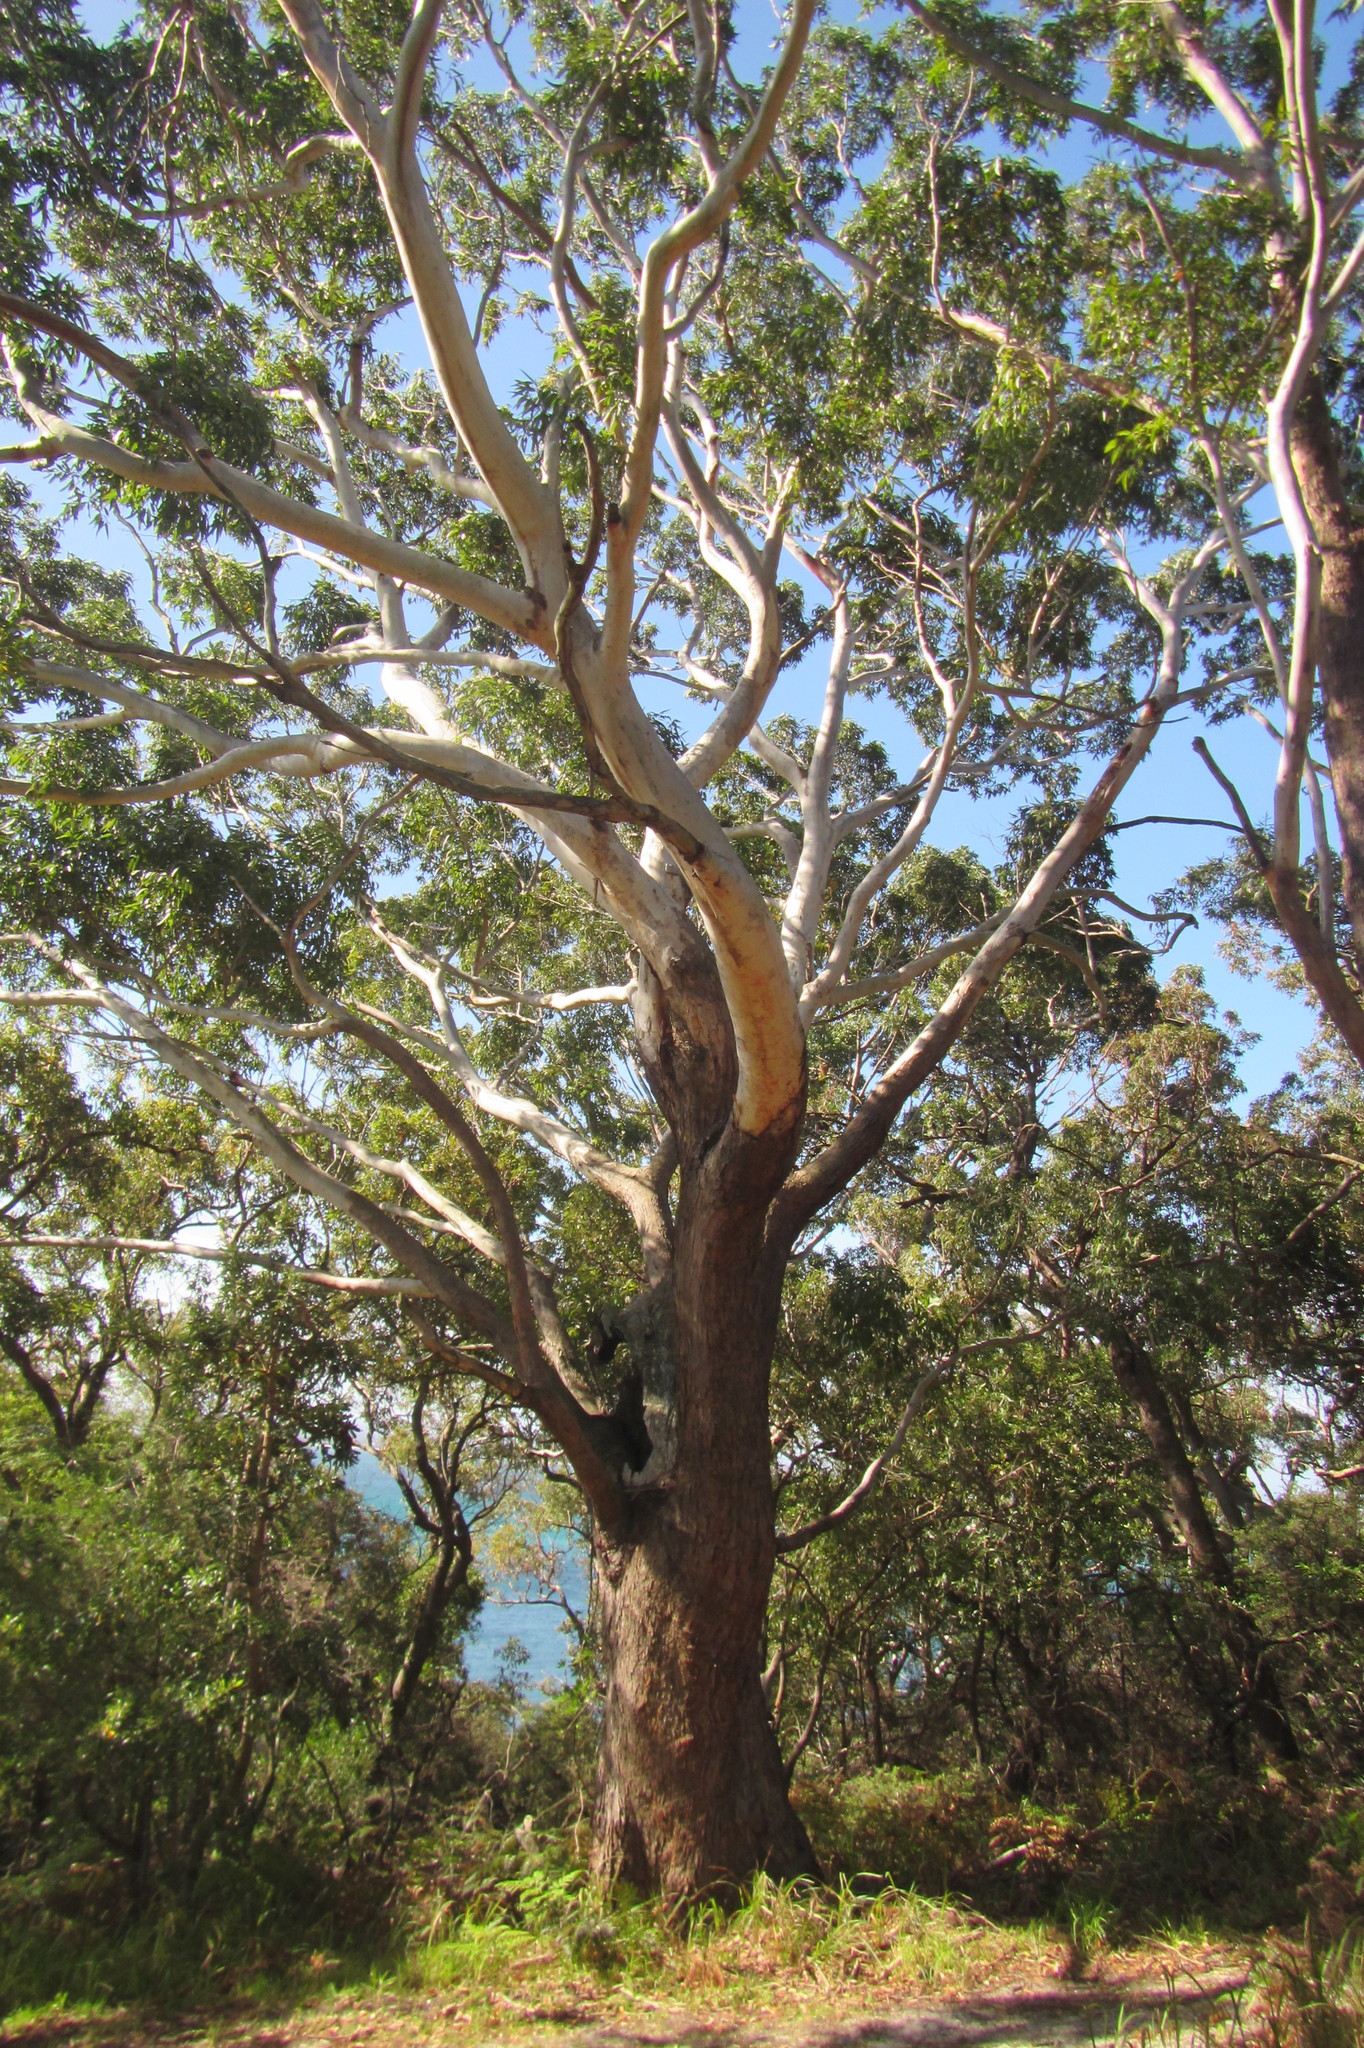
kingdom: Plantae
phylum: Tracheophyta
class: Magnoliopsida
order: Myrtales
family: Myrtaceae
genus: Eucalyptus
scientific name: Eucalyptus pilularis
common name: Blackbutt
